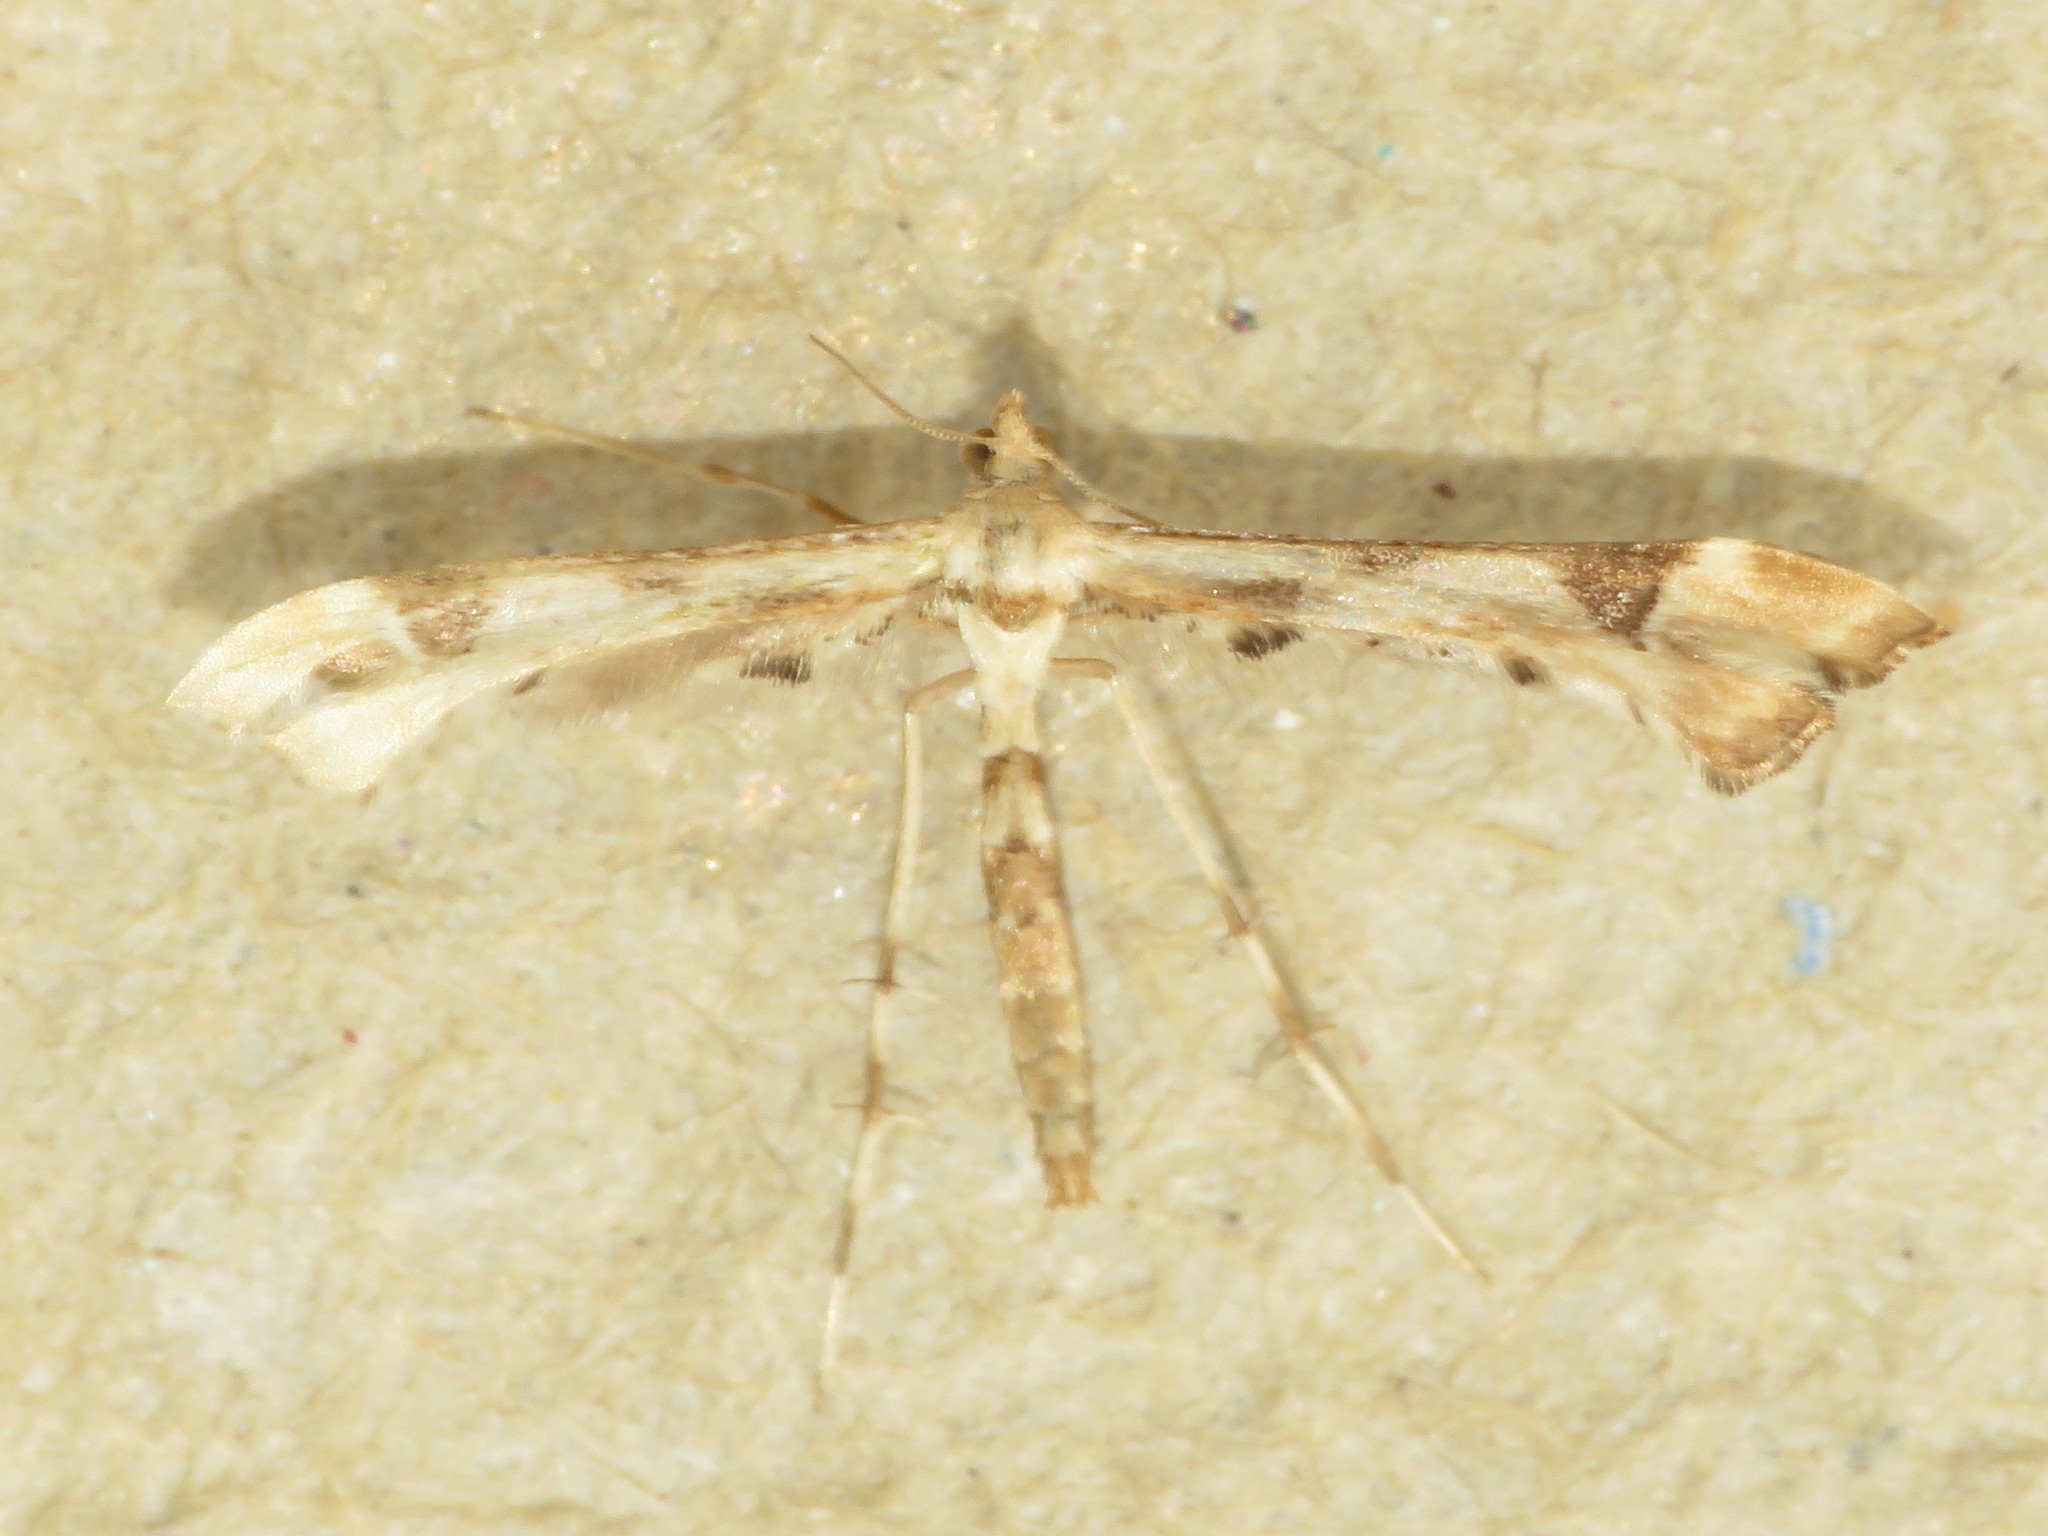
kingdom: Animalia
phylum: Arthropoda
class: Insecta
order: Lepidoptera
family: Pterophoridae
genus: Platyptilia
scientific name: Platyptilia carduidactylus
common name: Artichoke plume moth
